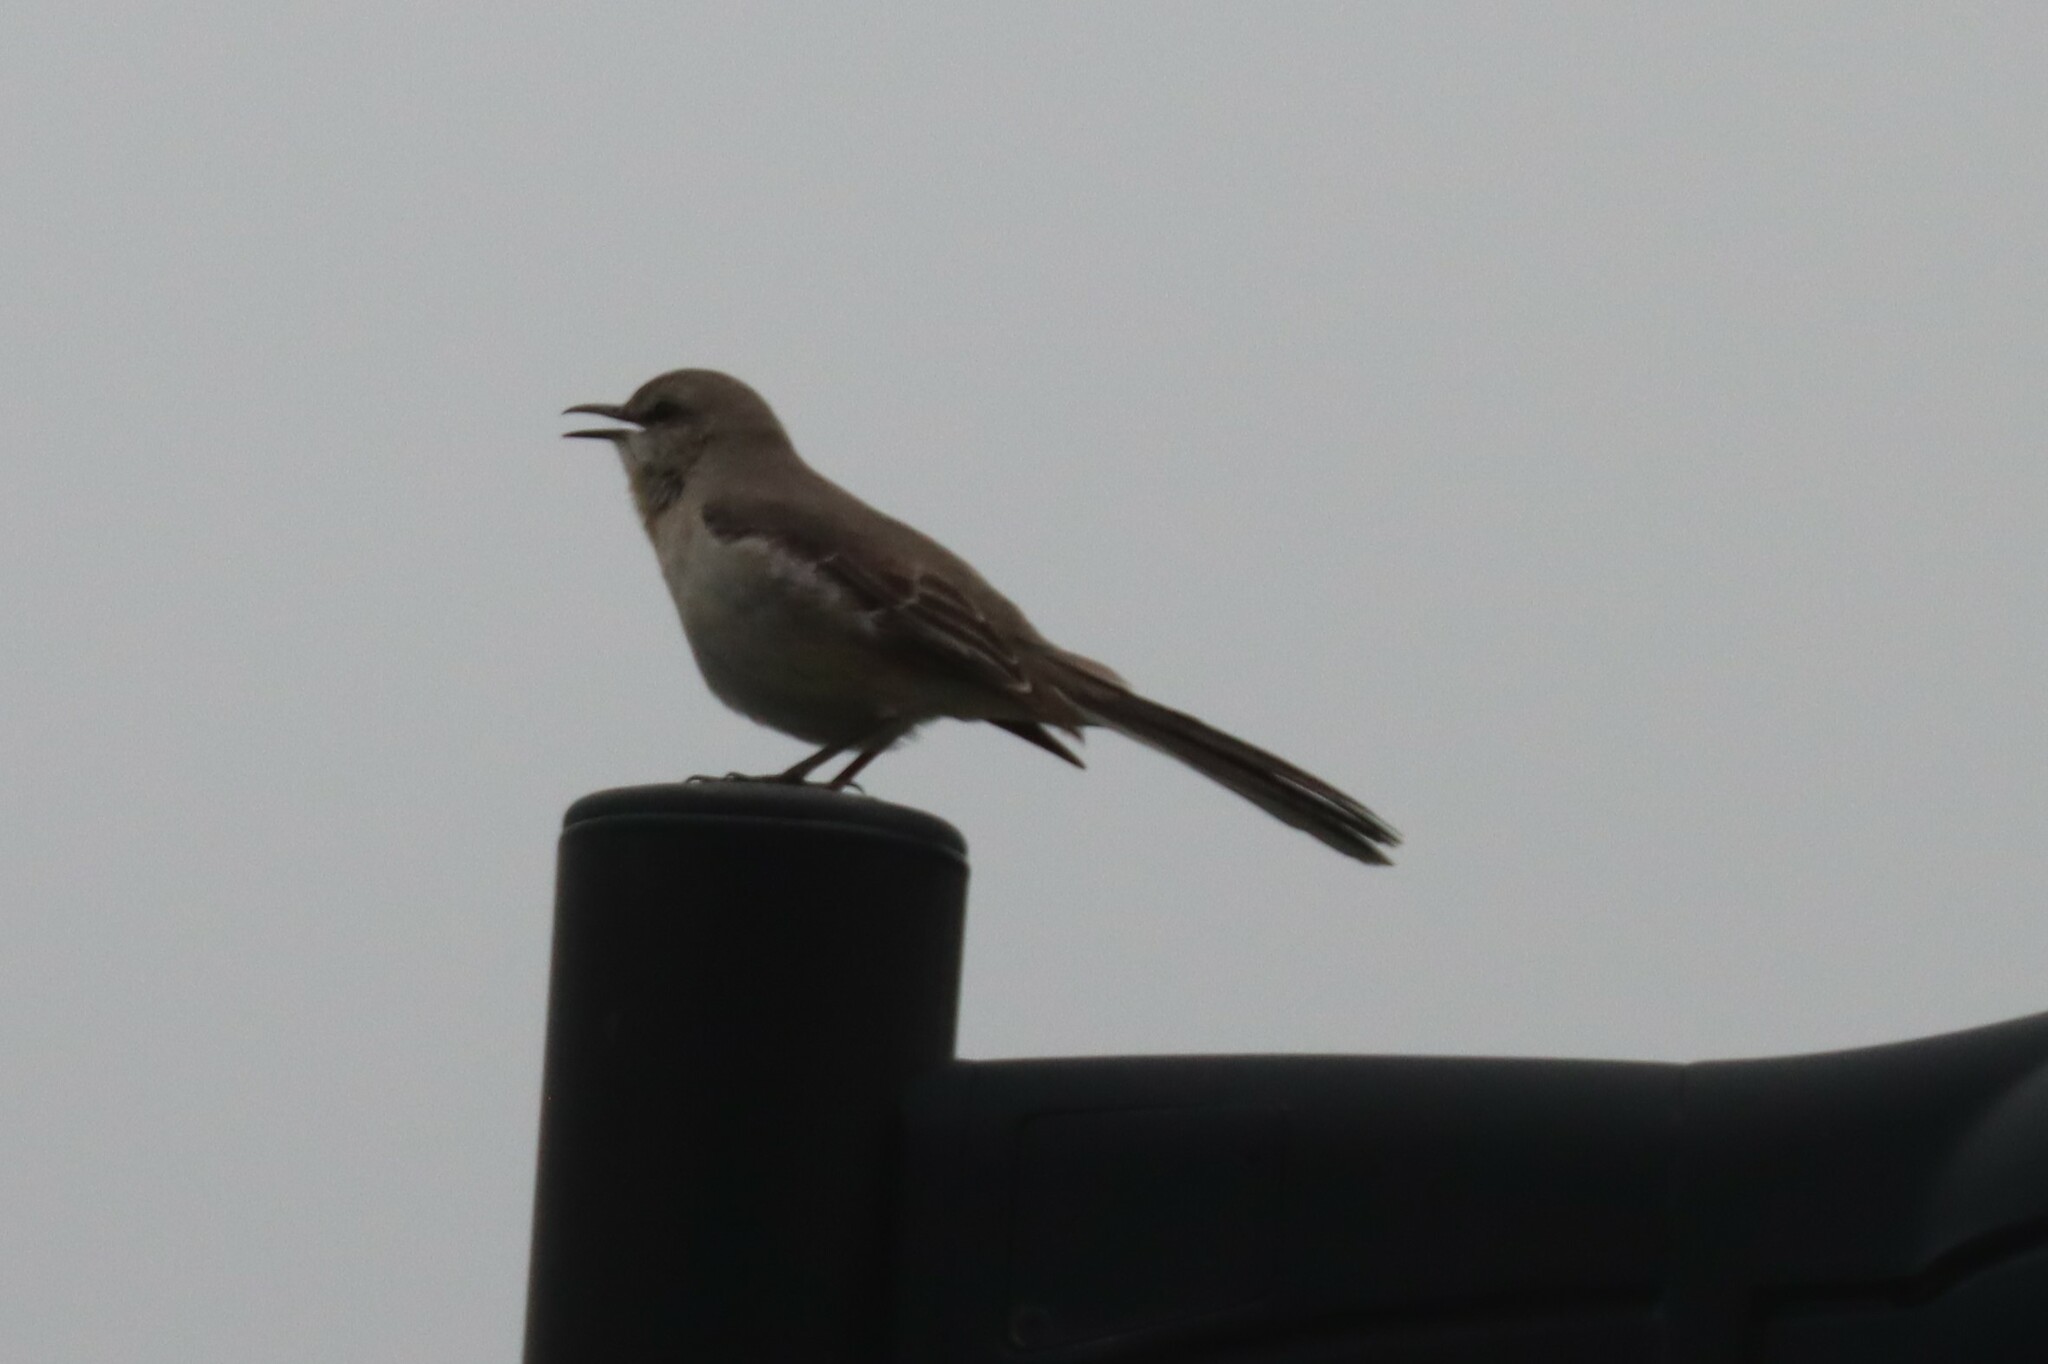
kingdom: Animalia
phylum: Chordata
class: Aves
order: Passeriformes
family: Mimidae
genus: Mimus
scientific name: Mimus polyglottos
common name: Northern mockingbird
